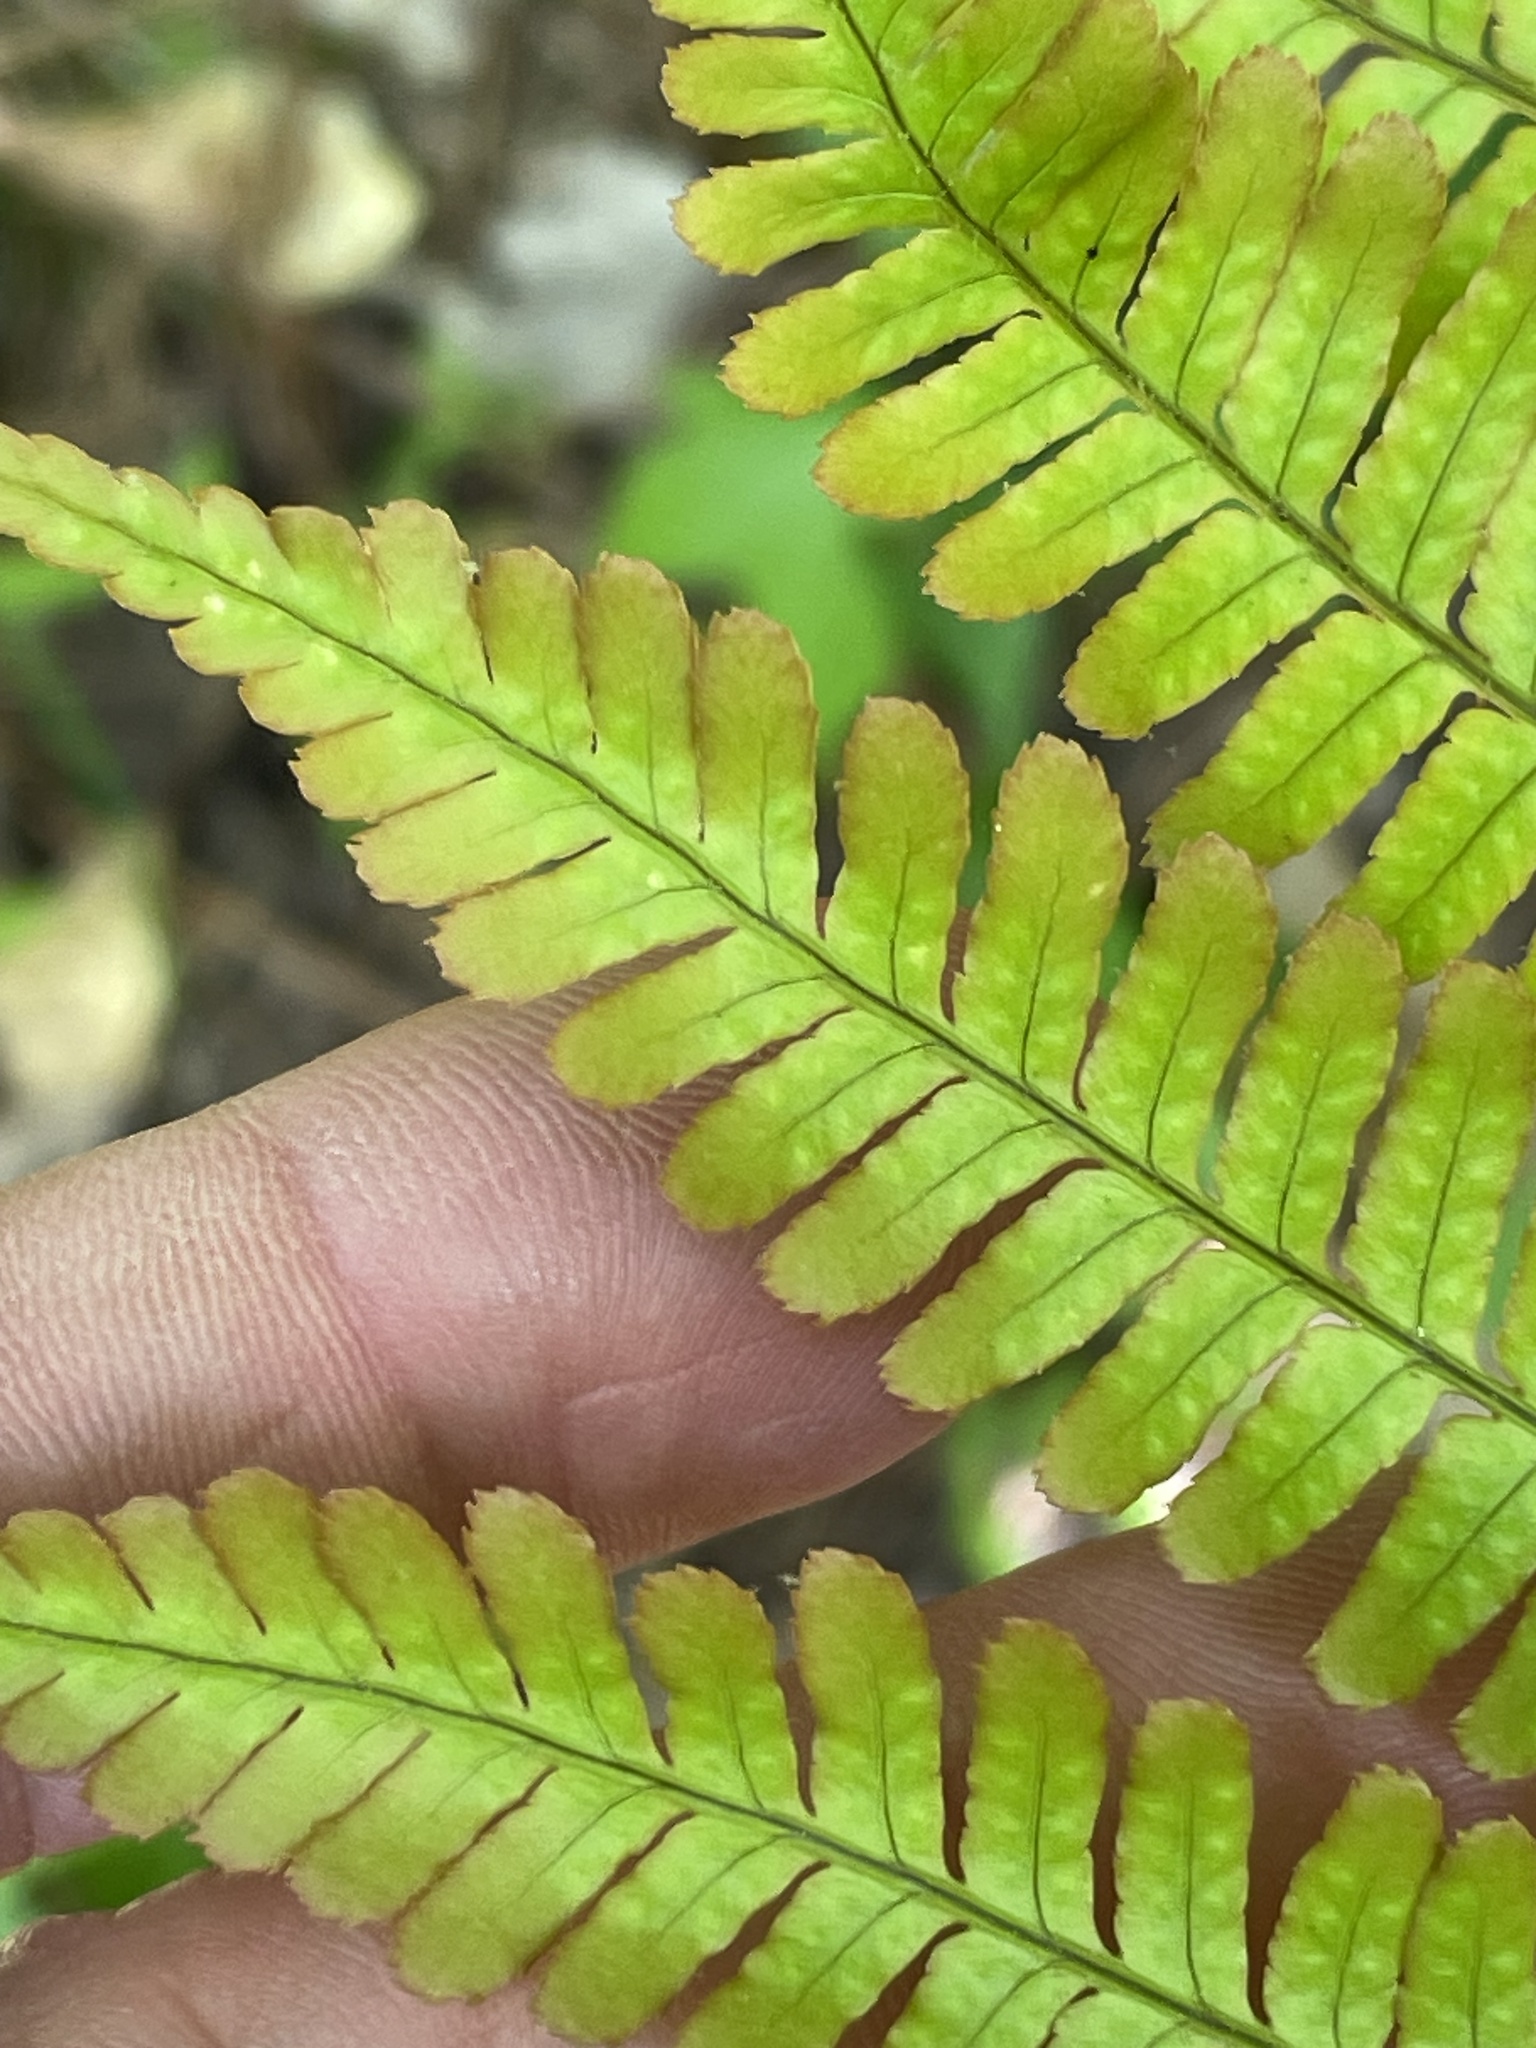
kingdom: Plantae
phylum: Tracheophyta
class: Polypodiopsida
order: Polypodiales
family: Dryopteridaceae
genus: Dryopteris
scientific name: Dryopteris erythrosora
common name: Autumn fern
